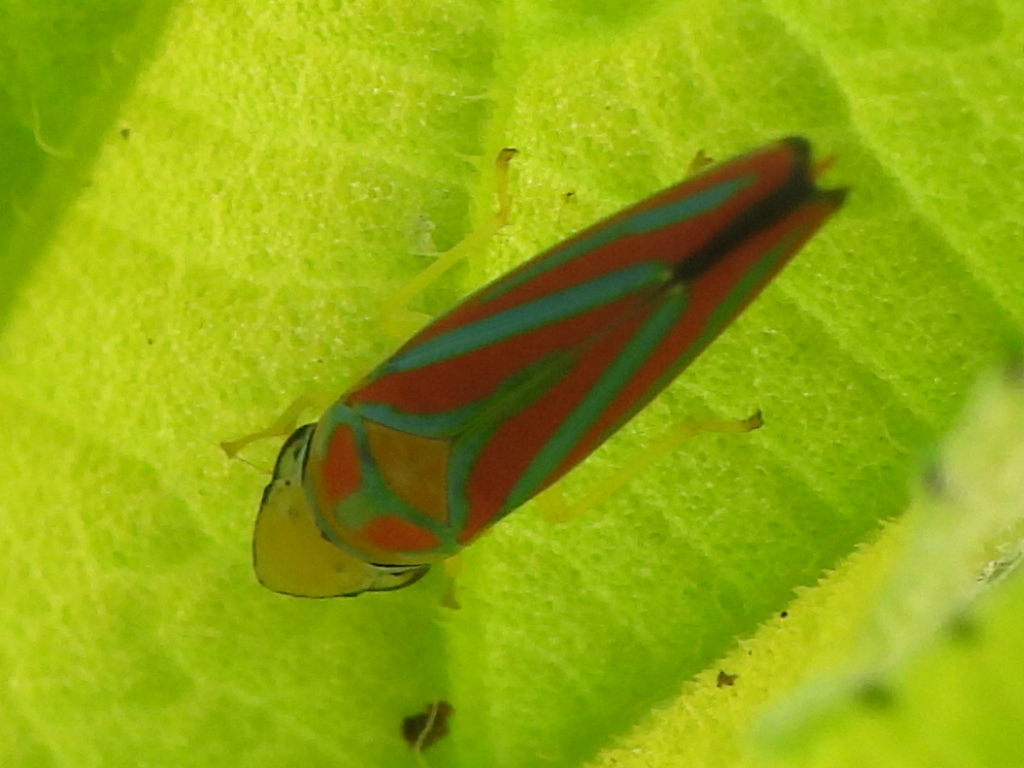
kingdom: Animalia
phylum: Arthropoda
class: Insecta
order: Hemiptera
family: Cicadellidae
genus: Graphocephala
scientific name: Graphocephala coccinea
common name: Candy-striped leafhopper
